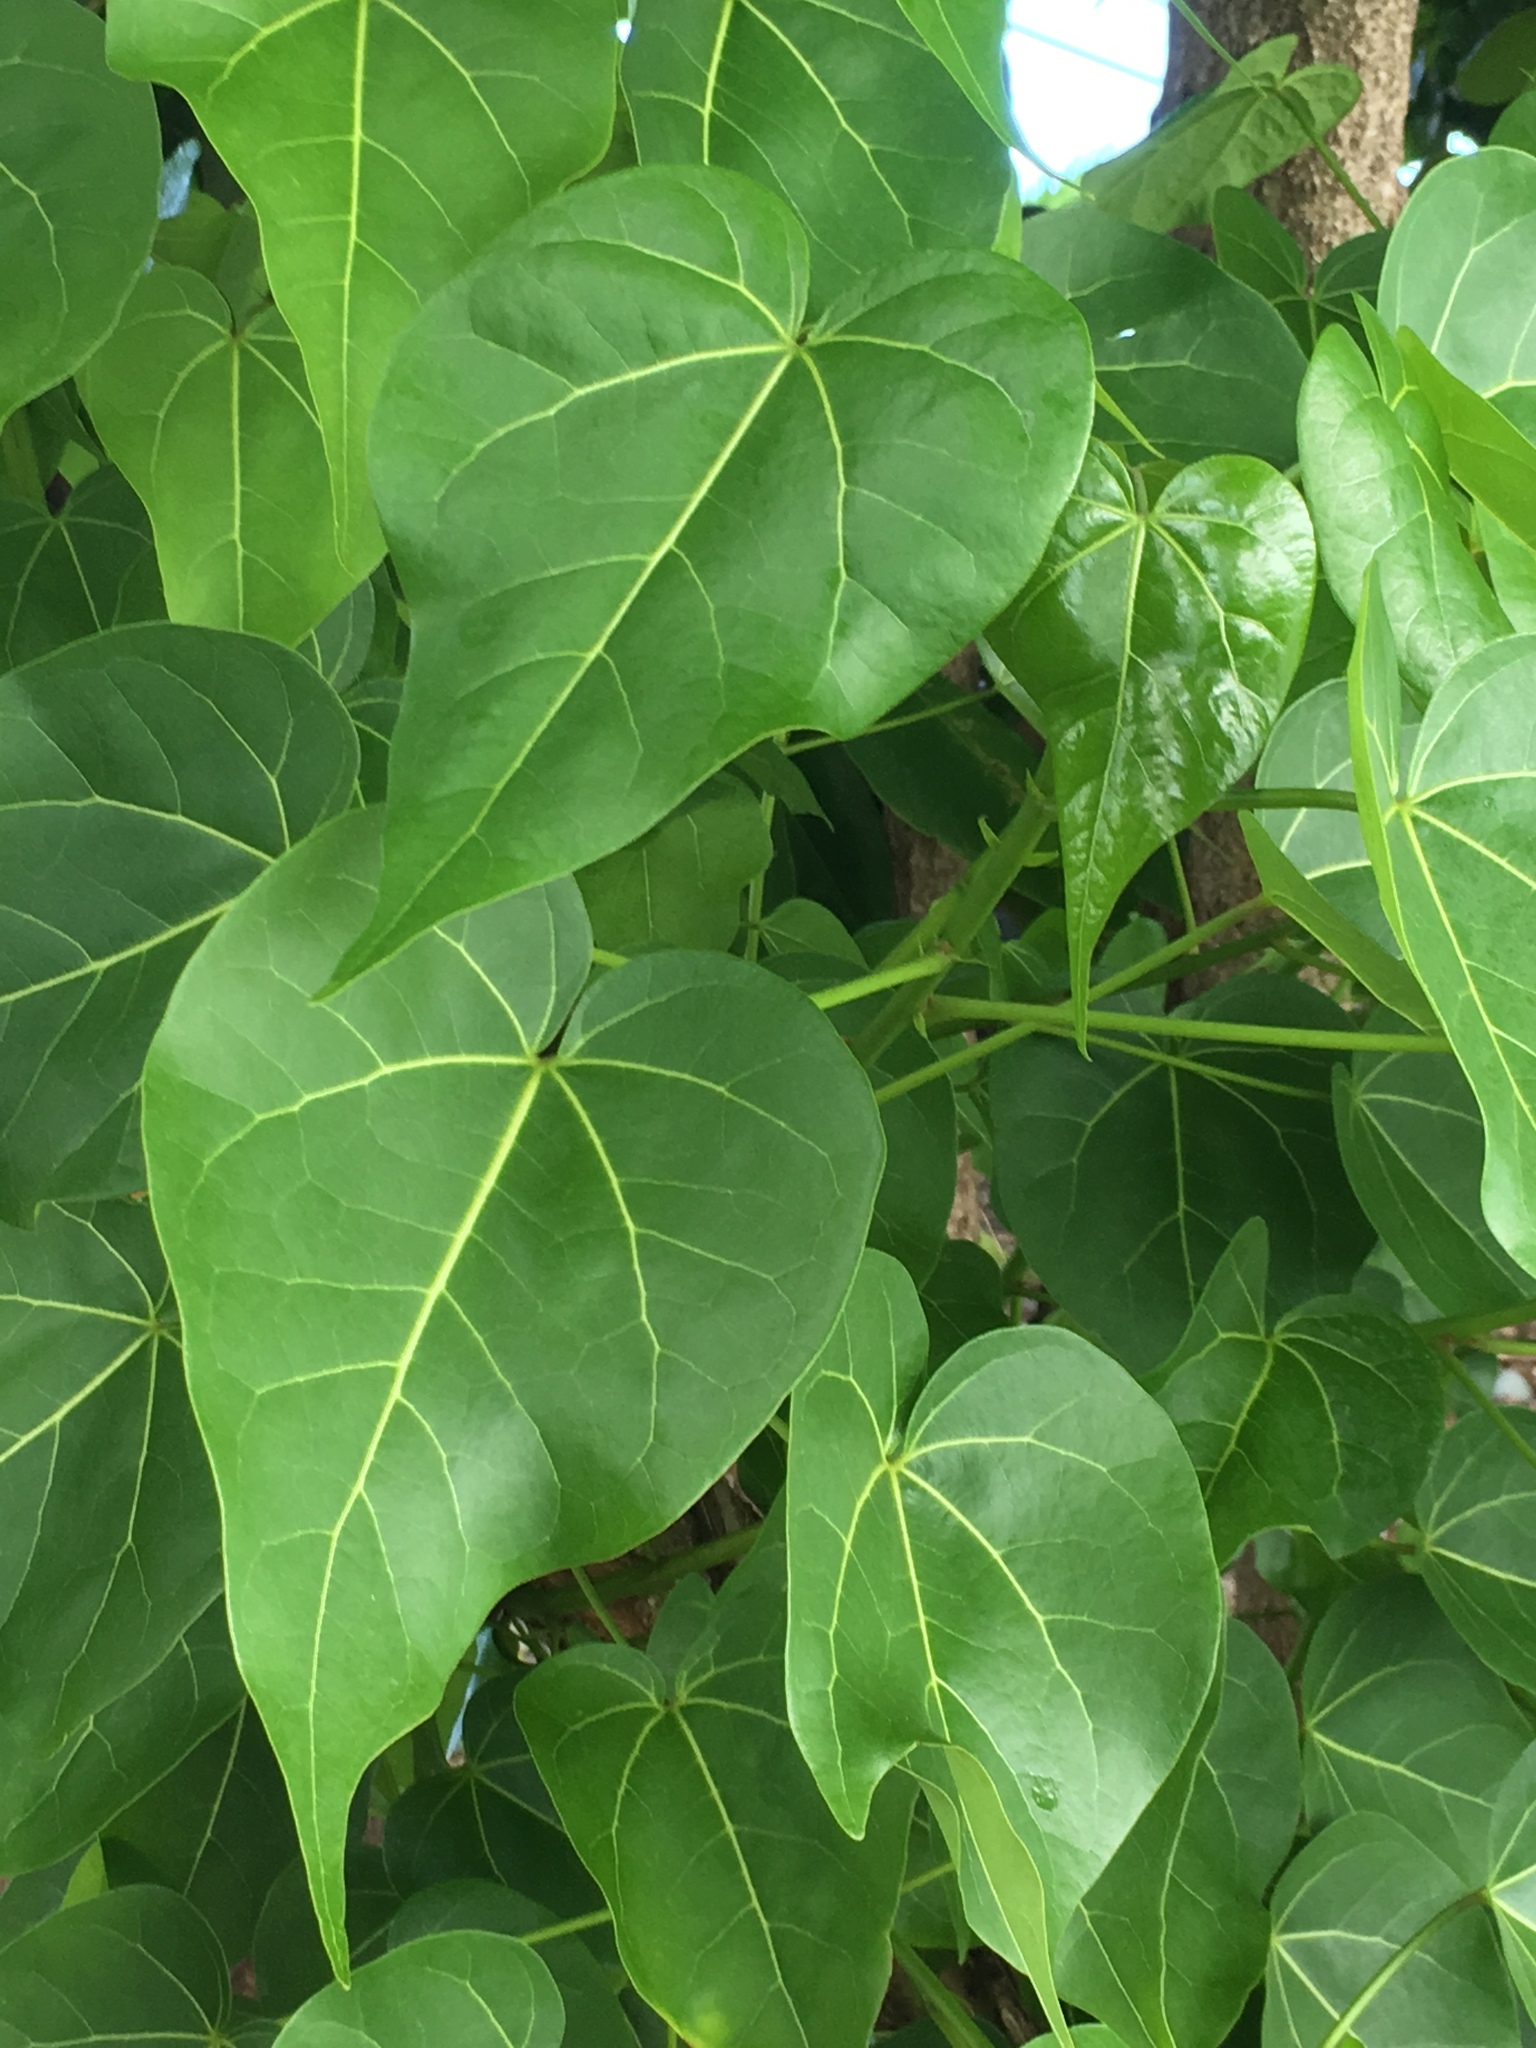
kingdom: Plantae
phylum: Tracheophyta
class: Magnoliopsida
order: Malvales
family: Malvaceae
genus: Thespesia
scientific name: Thespesia populnea
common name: Seaside mahoe
